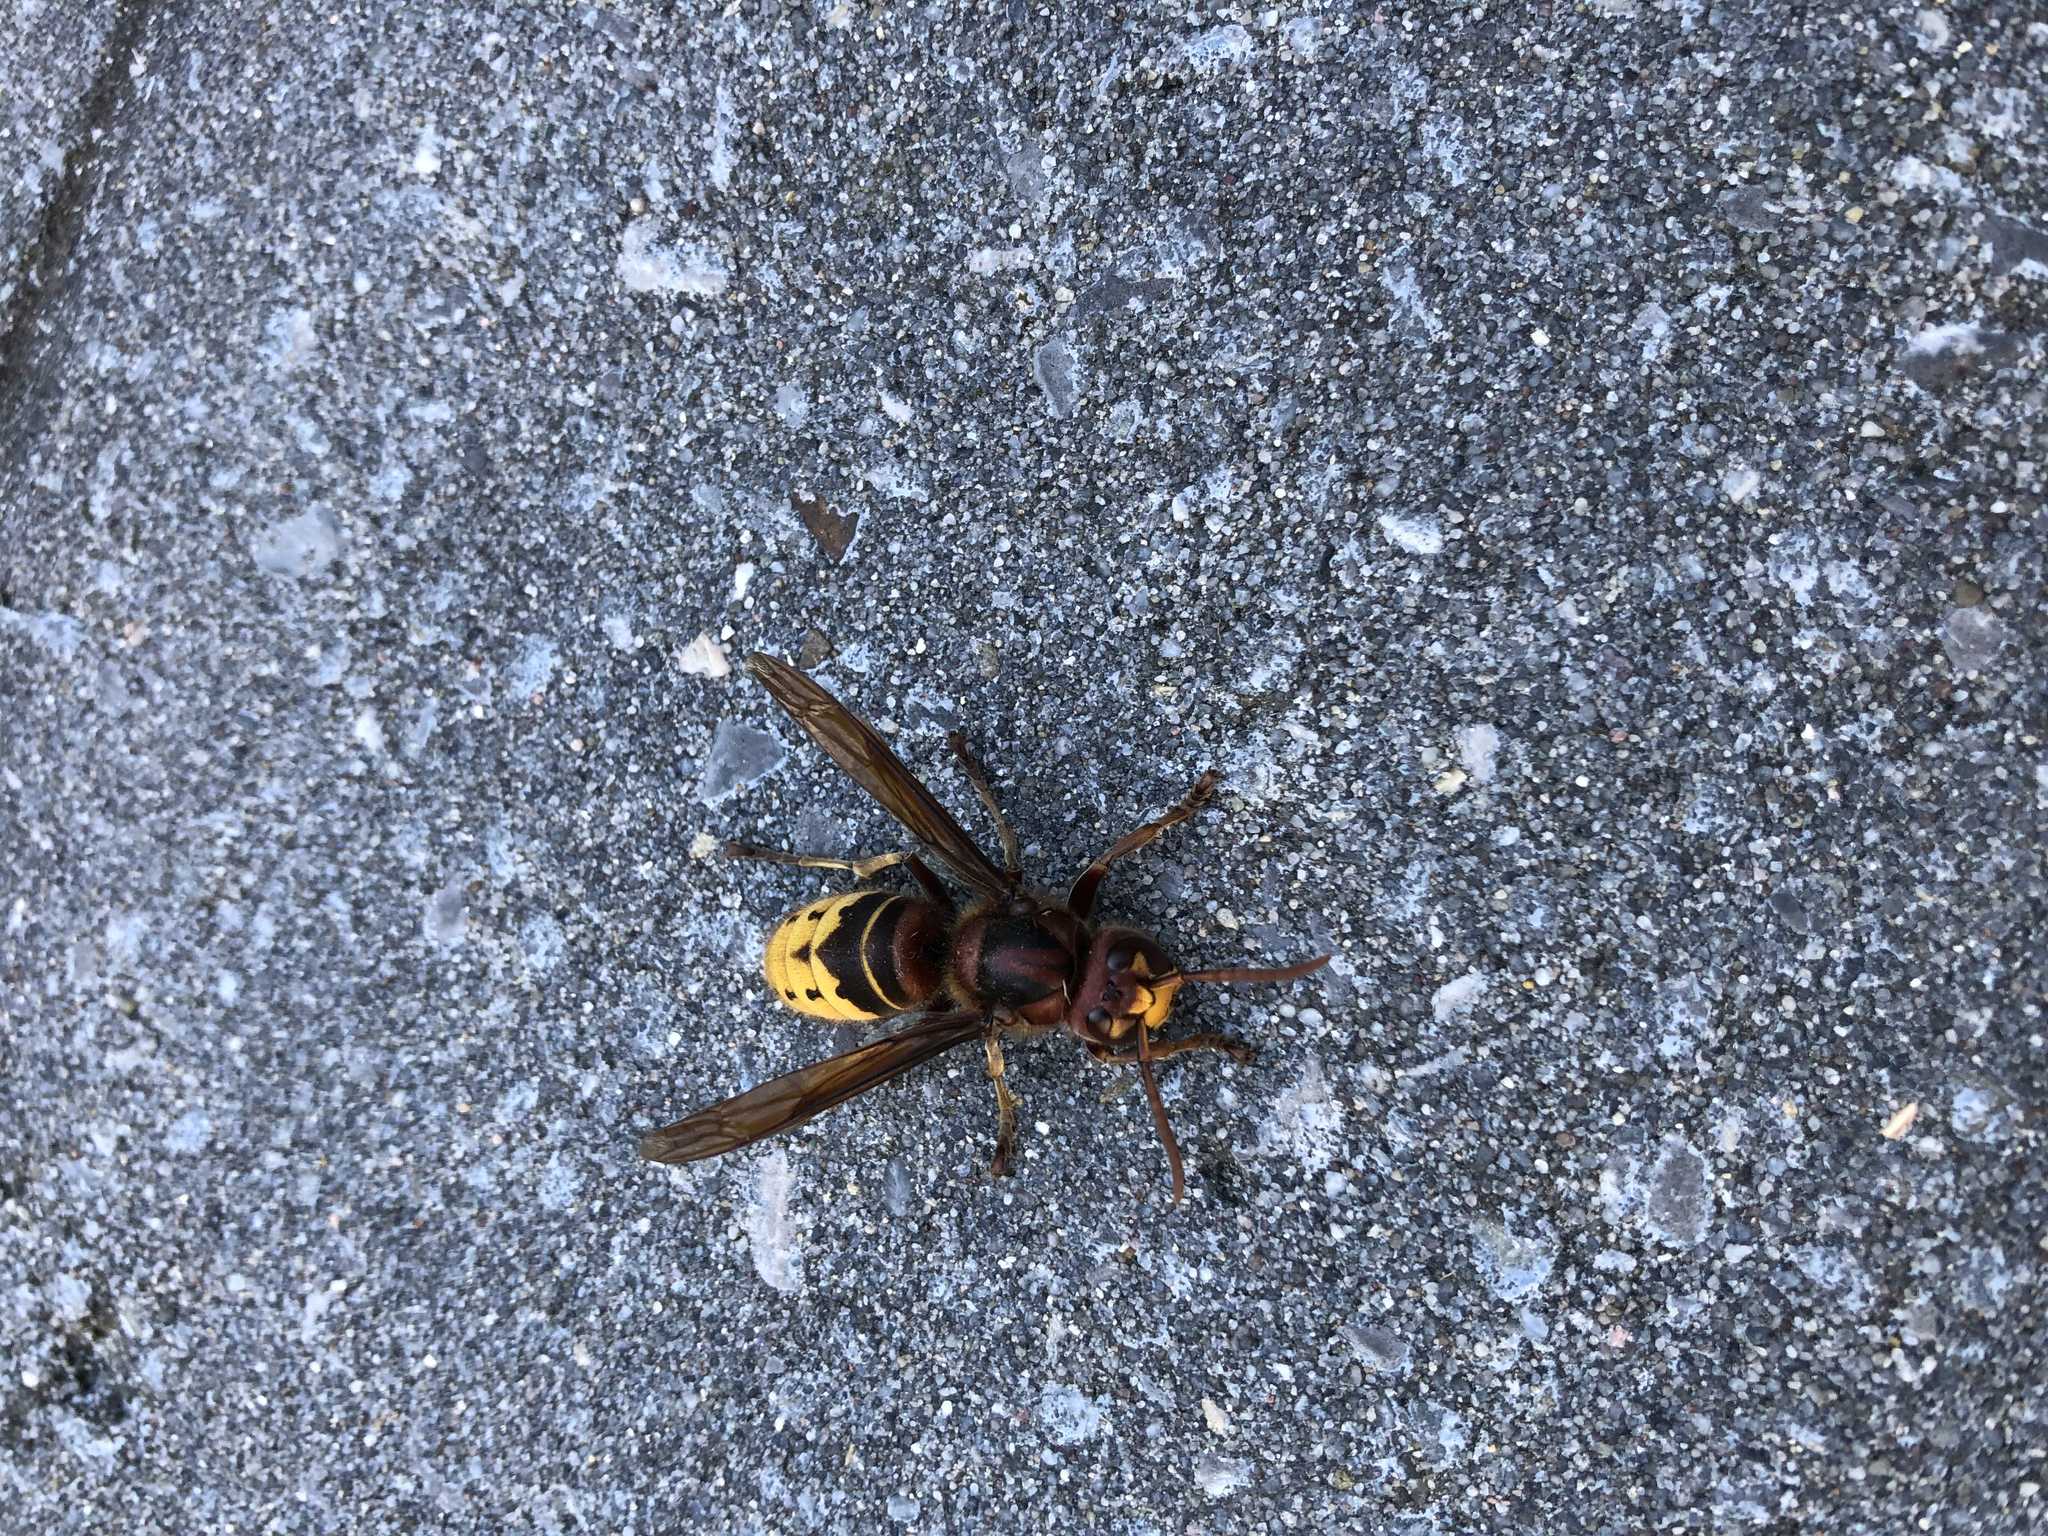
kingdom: Animalia
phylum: Arthropoda
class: Insecta
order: Hymenoptera
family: Vespidae
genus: Vespa
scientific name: Vespa crabro
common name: Hornet
